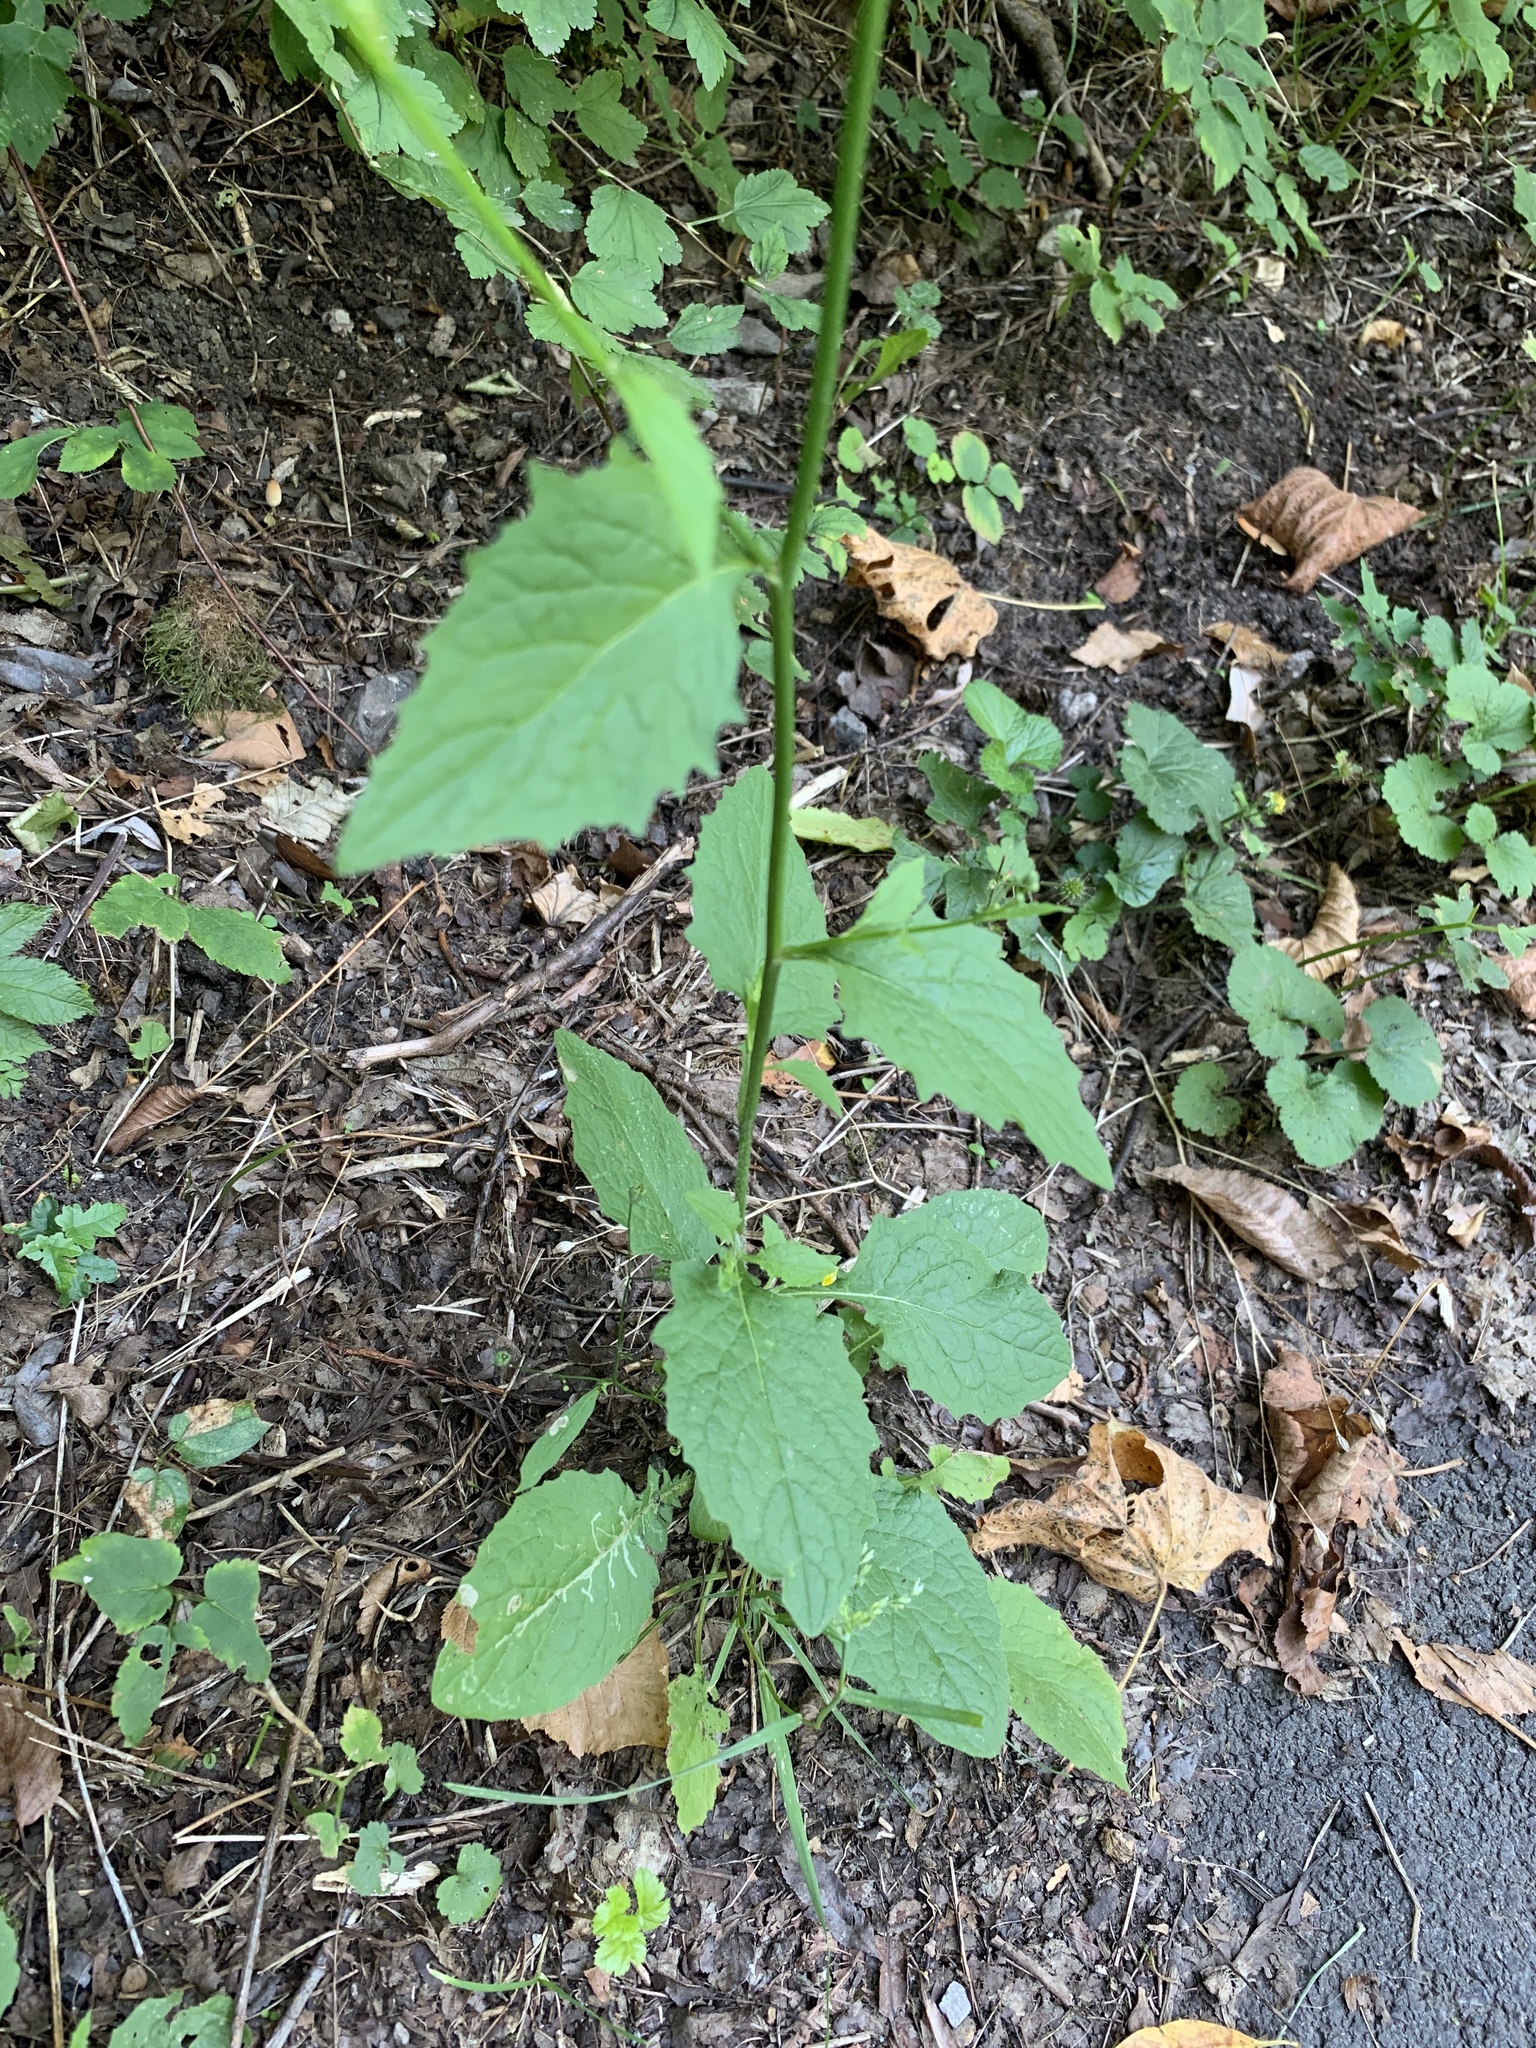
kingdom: Plantae
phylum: Tracheophyta
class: Magnoliopsida
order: Asterales
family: Asteraceae
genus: Lapsana
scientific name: Lapsana communis
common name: Nipplewort
